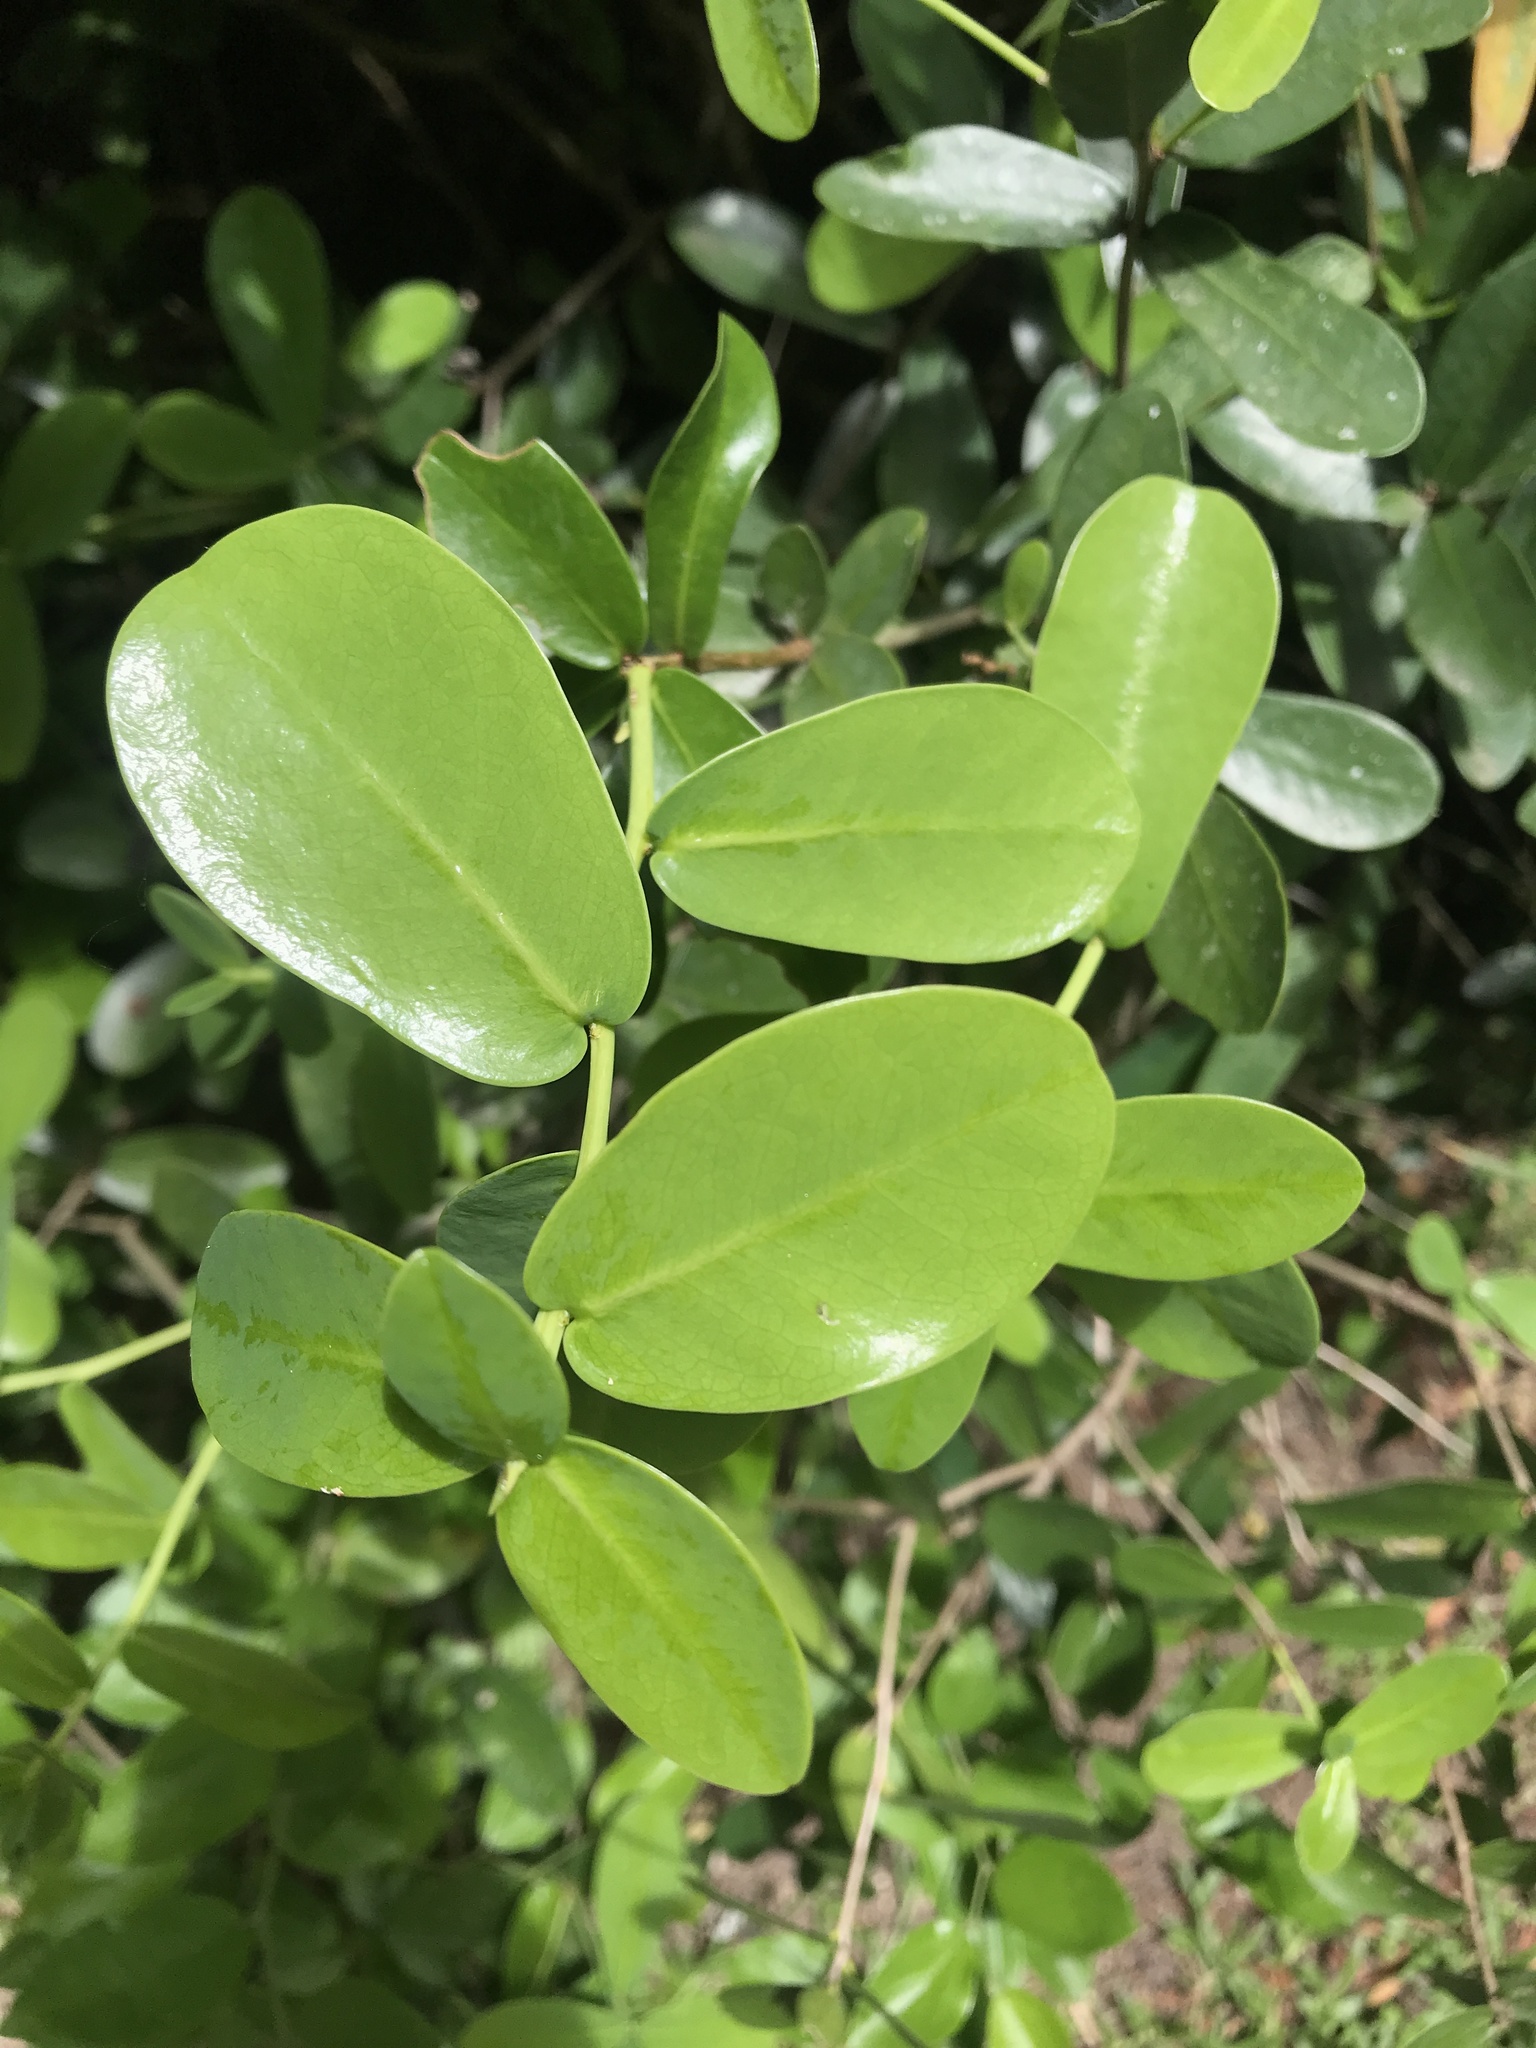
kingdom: Plantae
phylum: Tracheophyta
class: Magnoliopsida
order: Malvales
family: Thymelaeaceae
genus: Daphnopsis
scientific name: Daphnopsis racemosa
